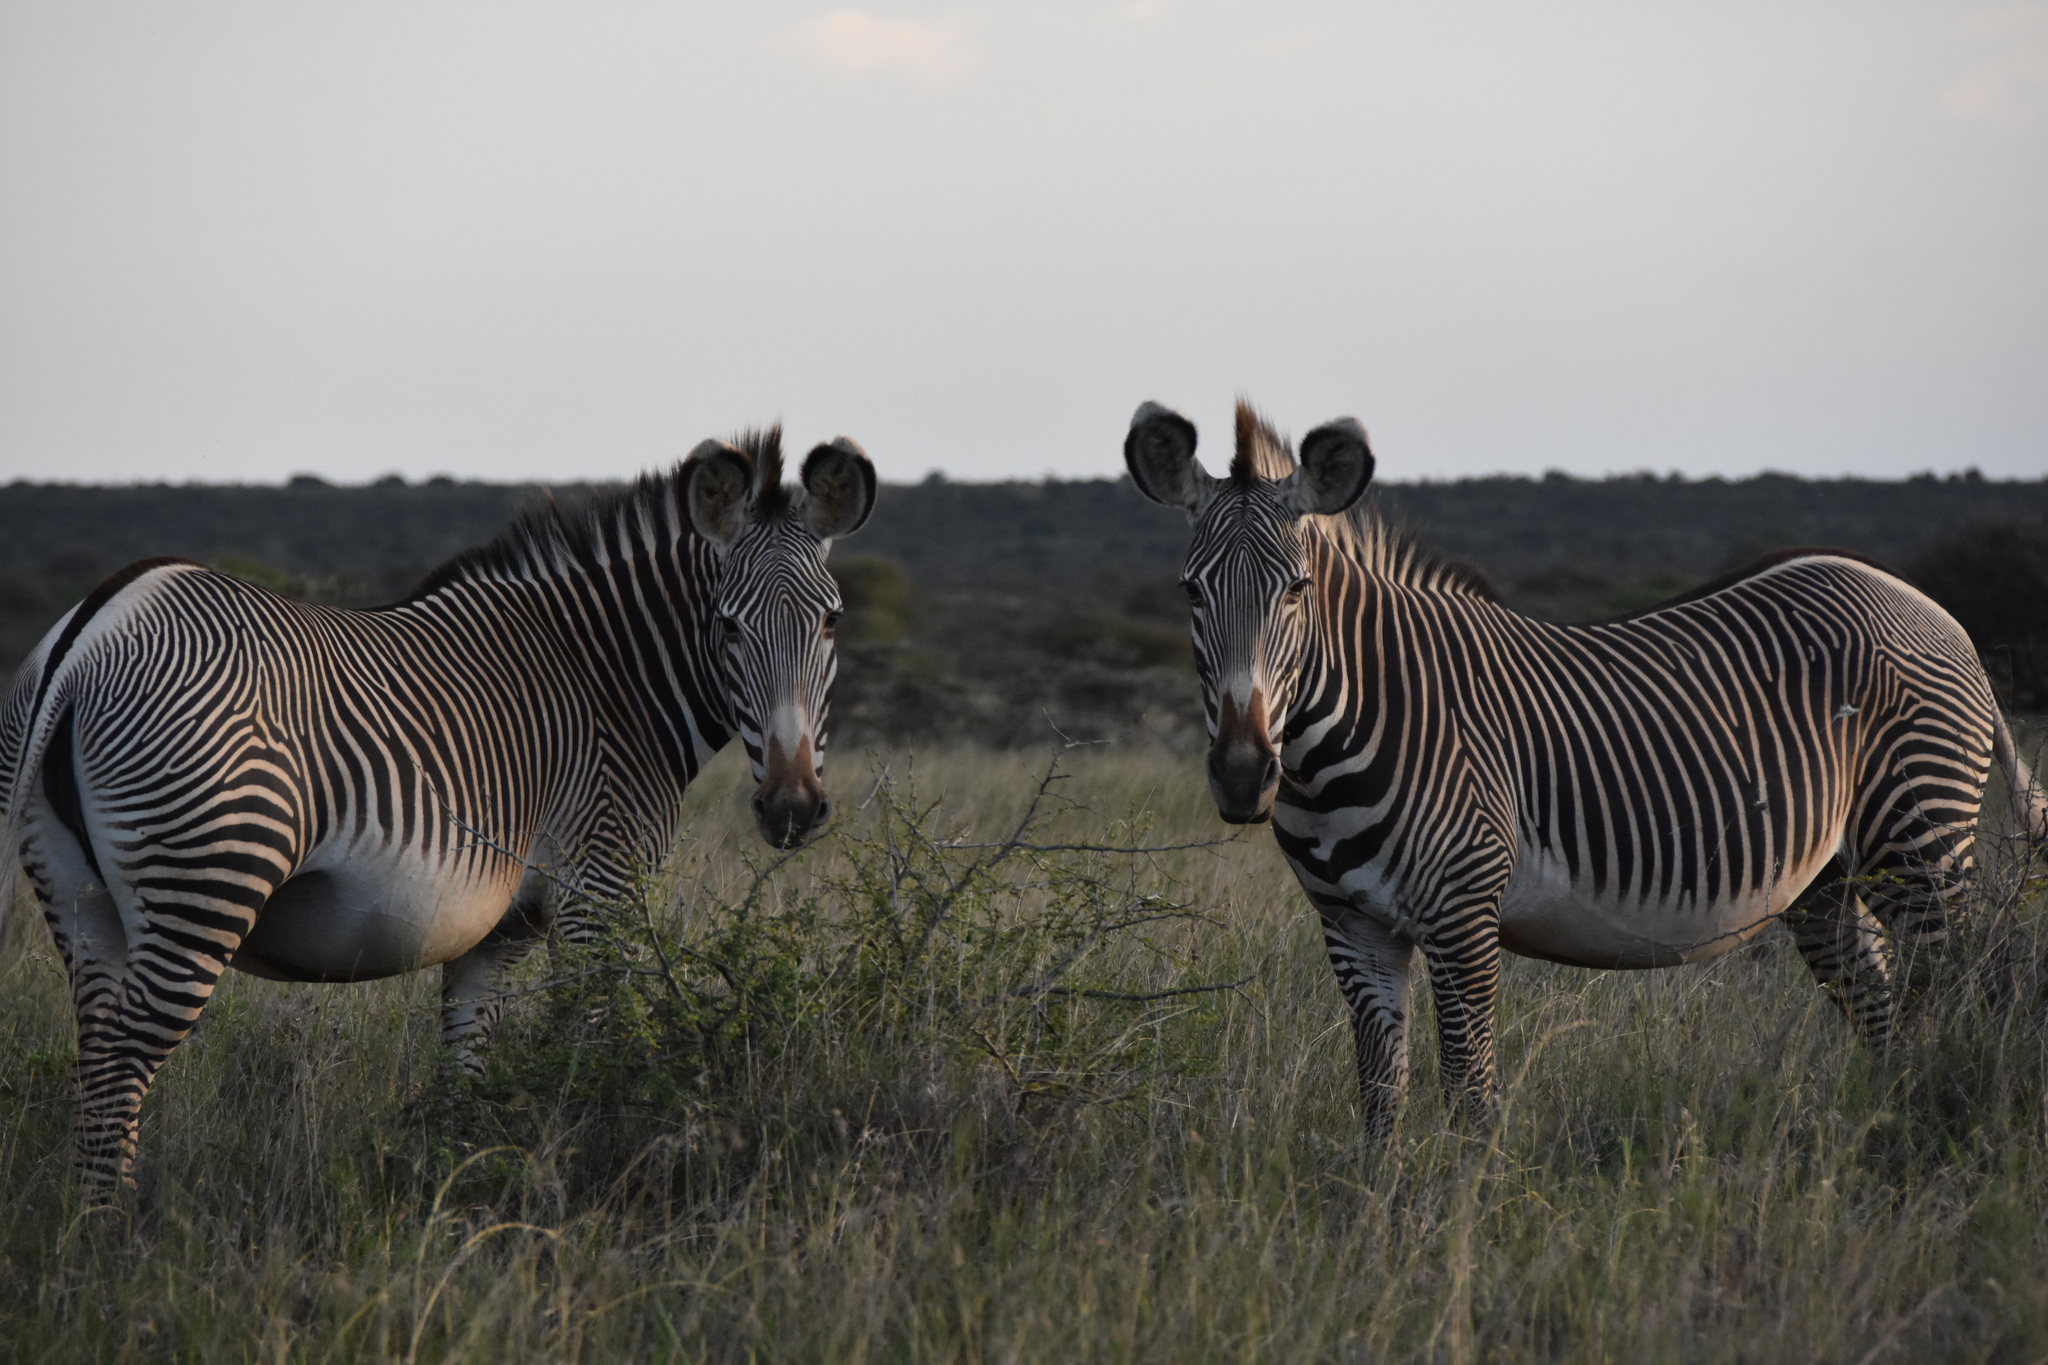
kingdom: Animalia
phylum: Chordata
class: Mammalia
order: Perissodactyla
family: Equidae
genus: Equus
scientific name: Equus grevyi
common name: Grevy's zebra
